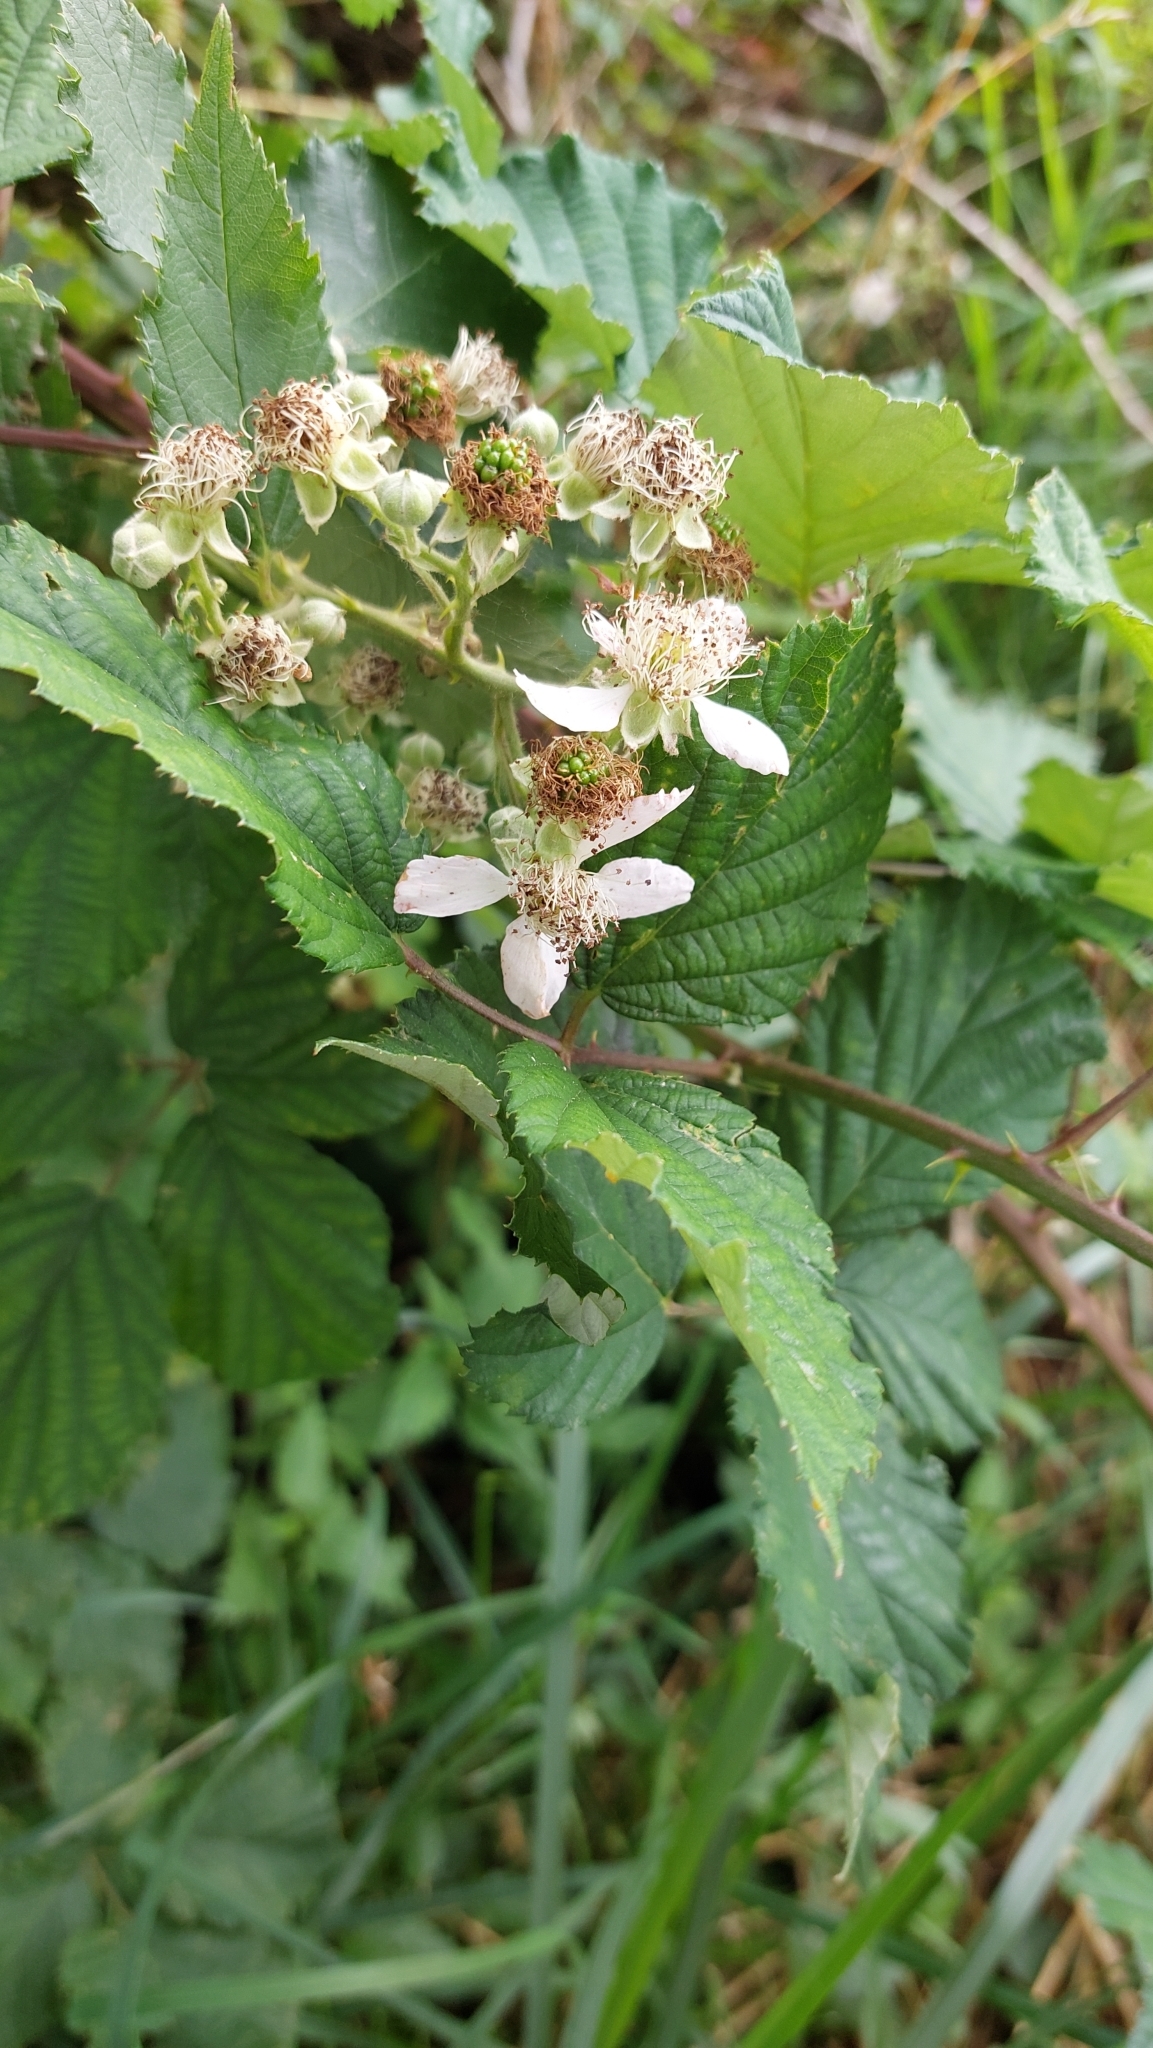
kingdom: Plantae
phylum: Tracheophyta
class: Magnoliopsida
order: Rosales
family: Rosaceae
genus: Rubus
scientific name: Rubus
